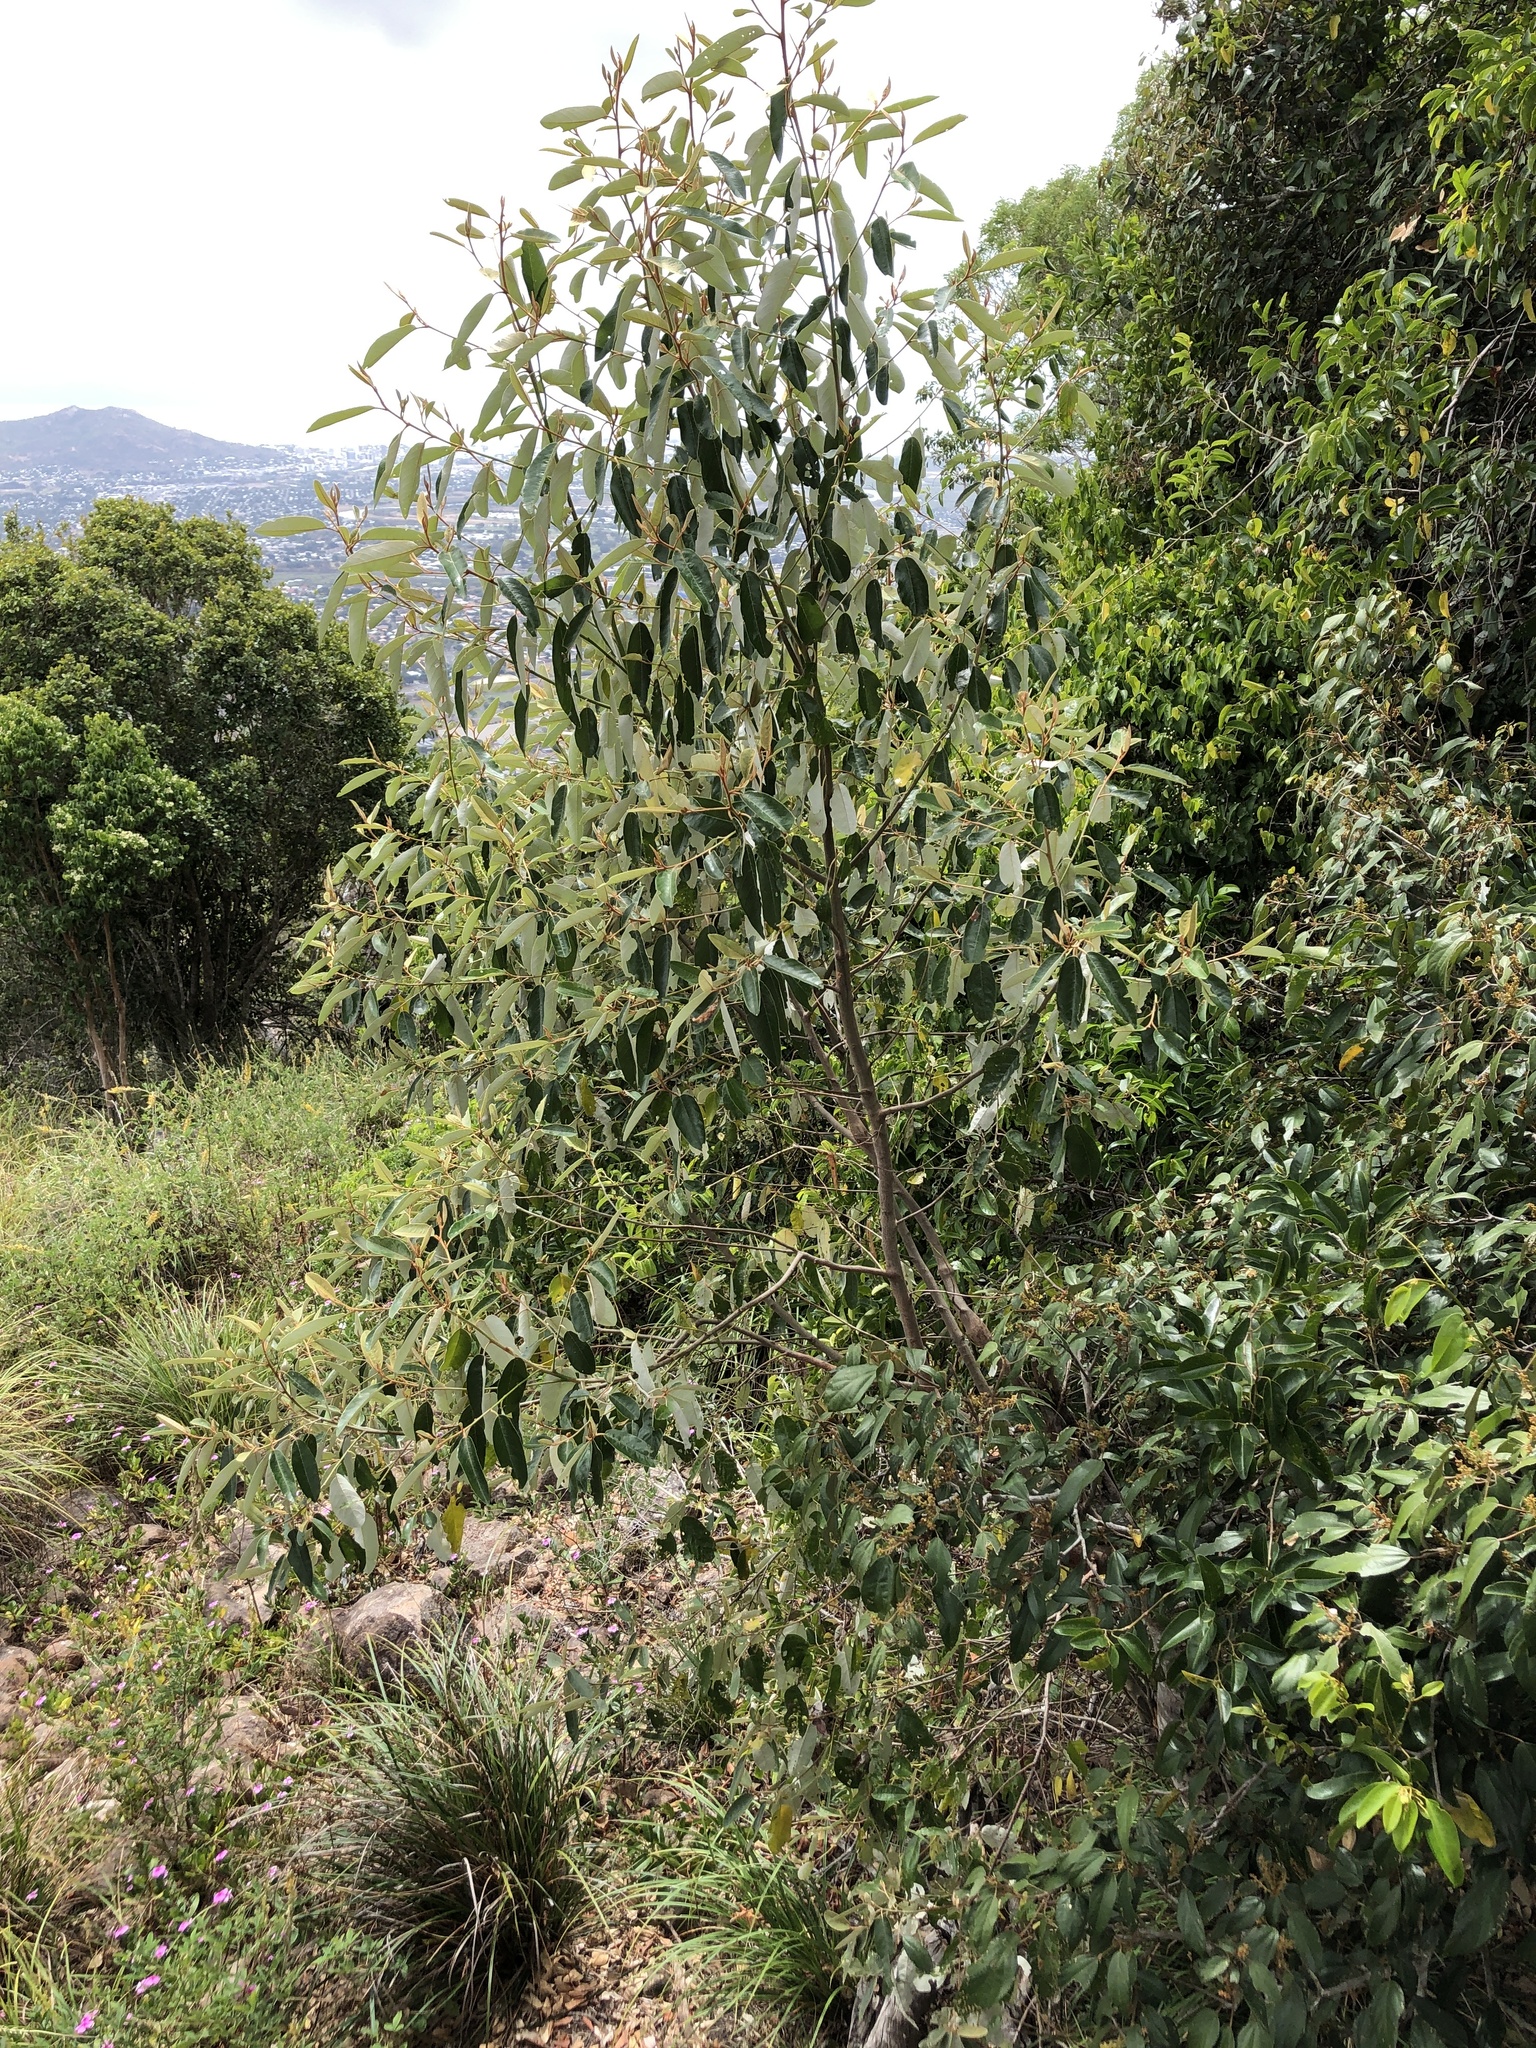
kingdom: Plantae
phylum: Tracheophyta
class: Magnoliopsida
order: Rosales
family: Rhamnaceae
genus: Alphitonia
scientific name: Alphitonia excelsa
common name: Red ash
